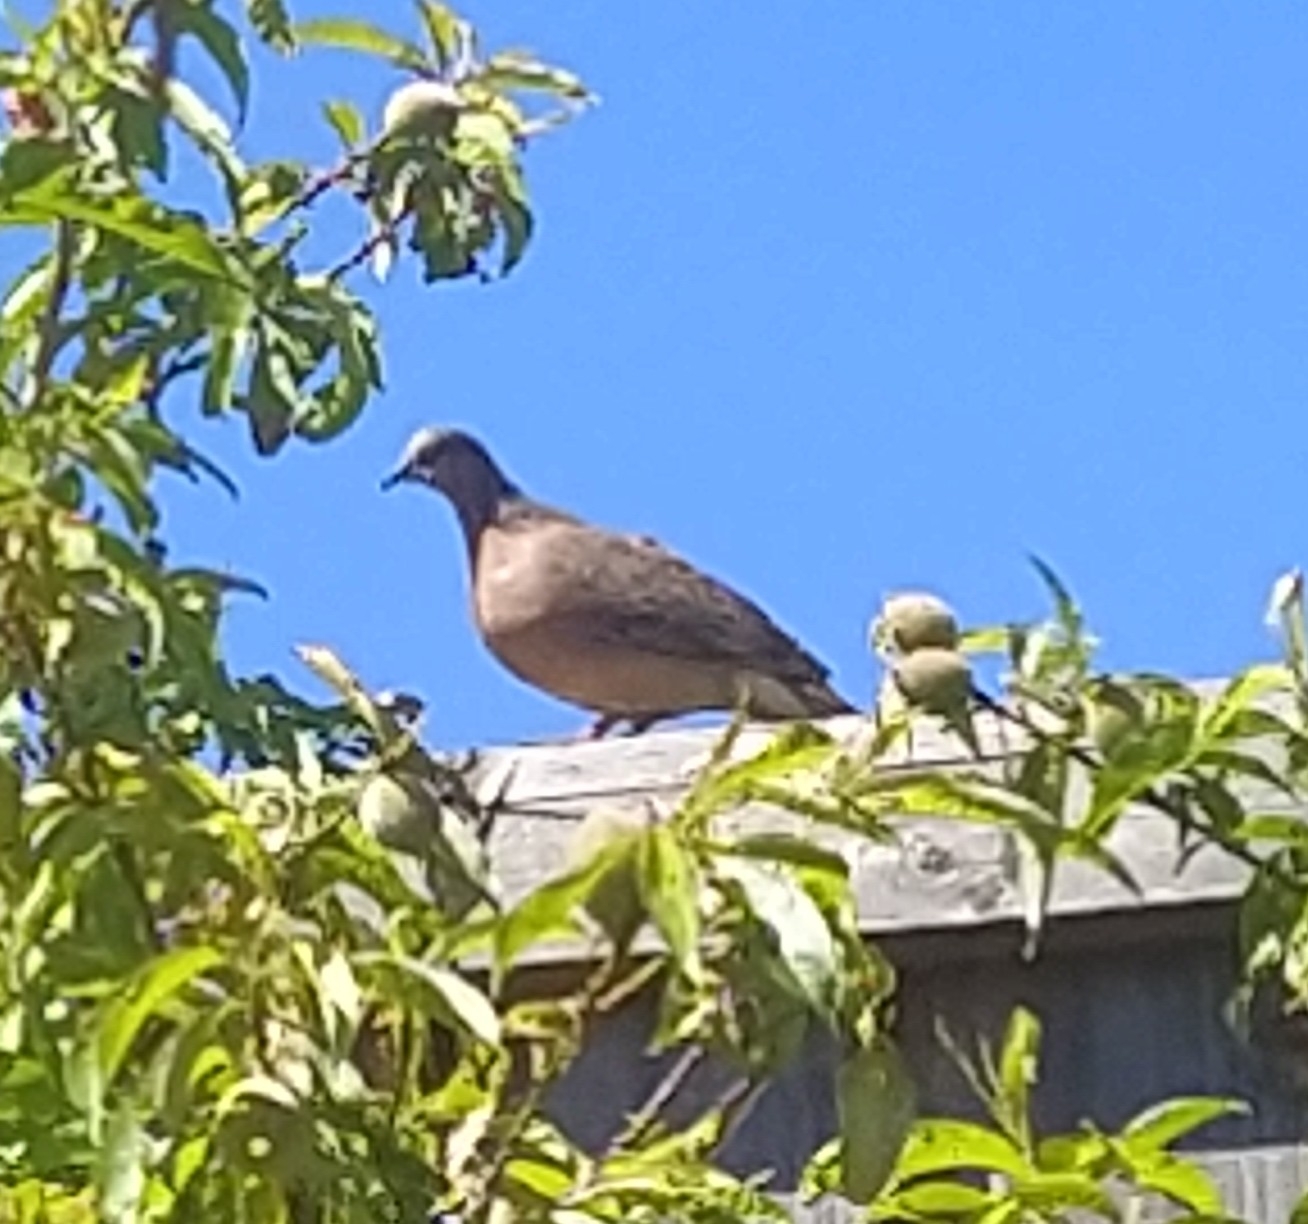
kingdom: Animalia
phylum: Chordata
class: Aves
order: Columbiformes
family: Columbidae
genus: Spilopelia
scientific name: Spilopelia chinensis
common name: Spotted dove
